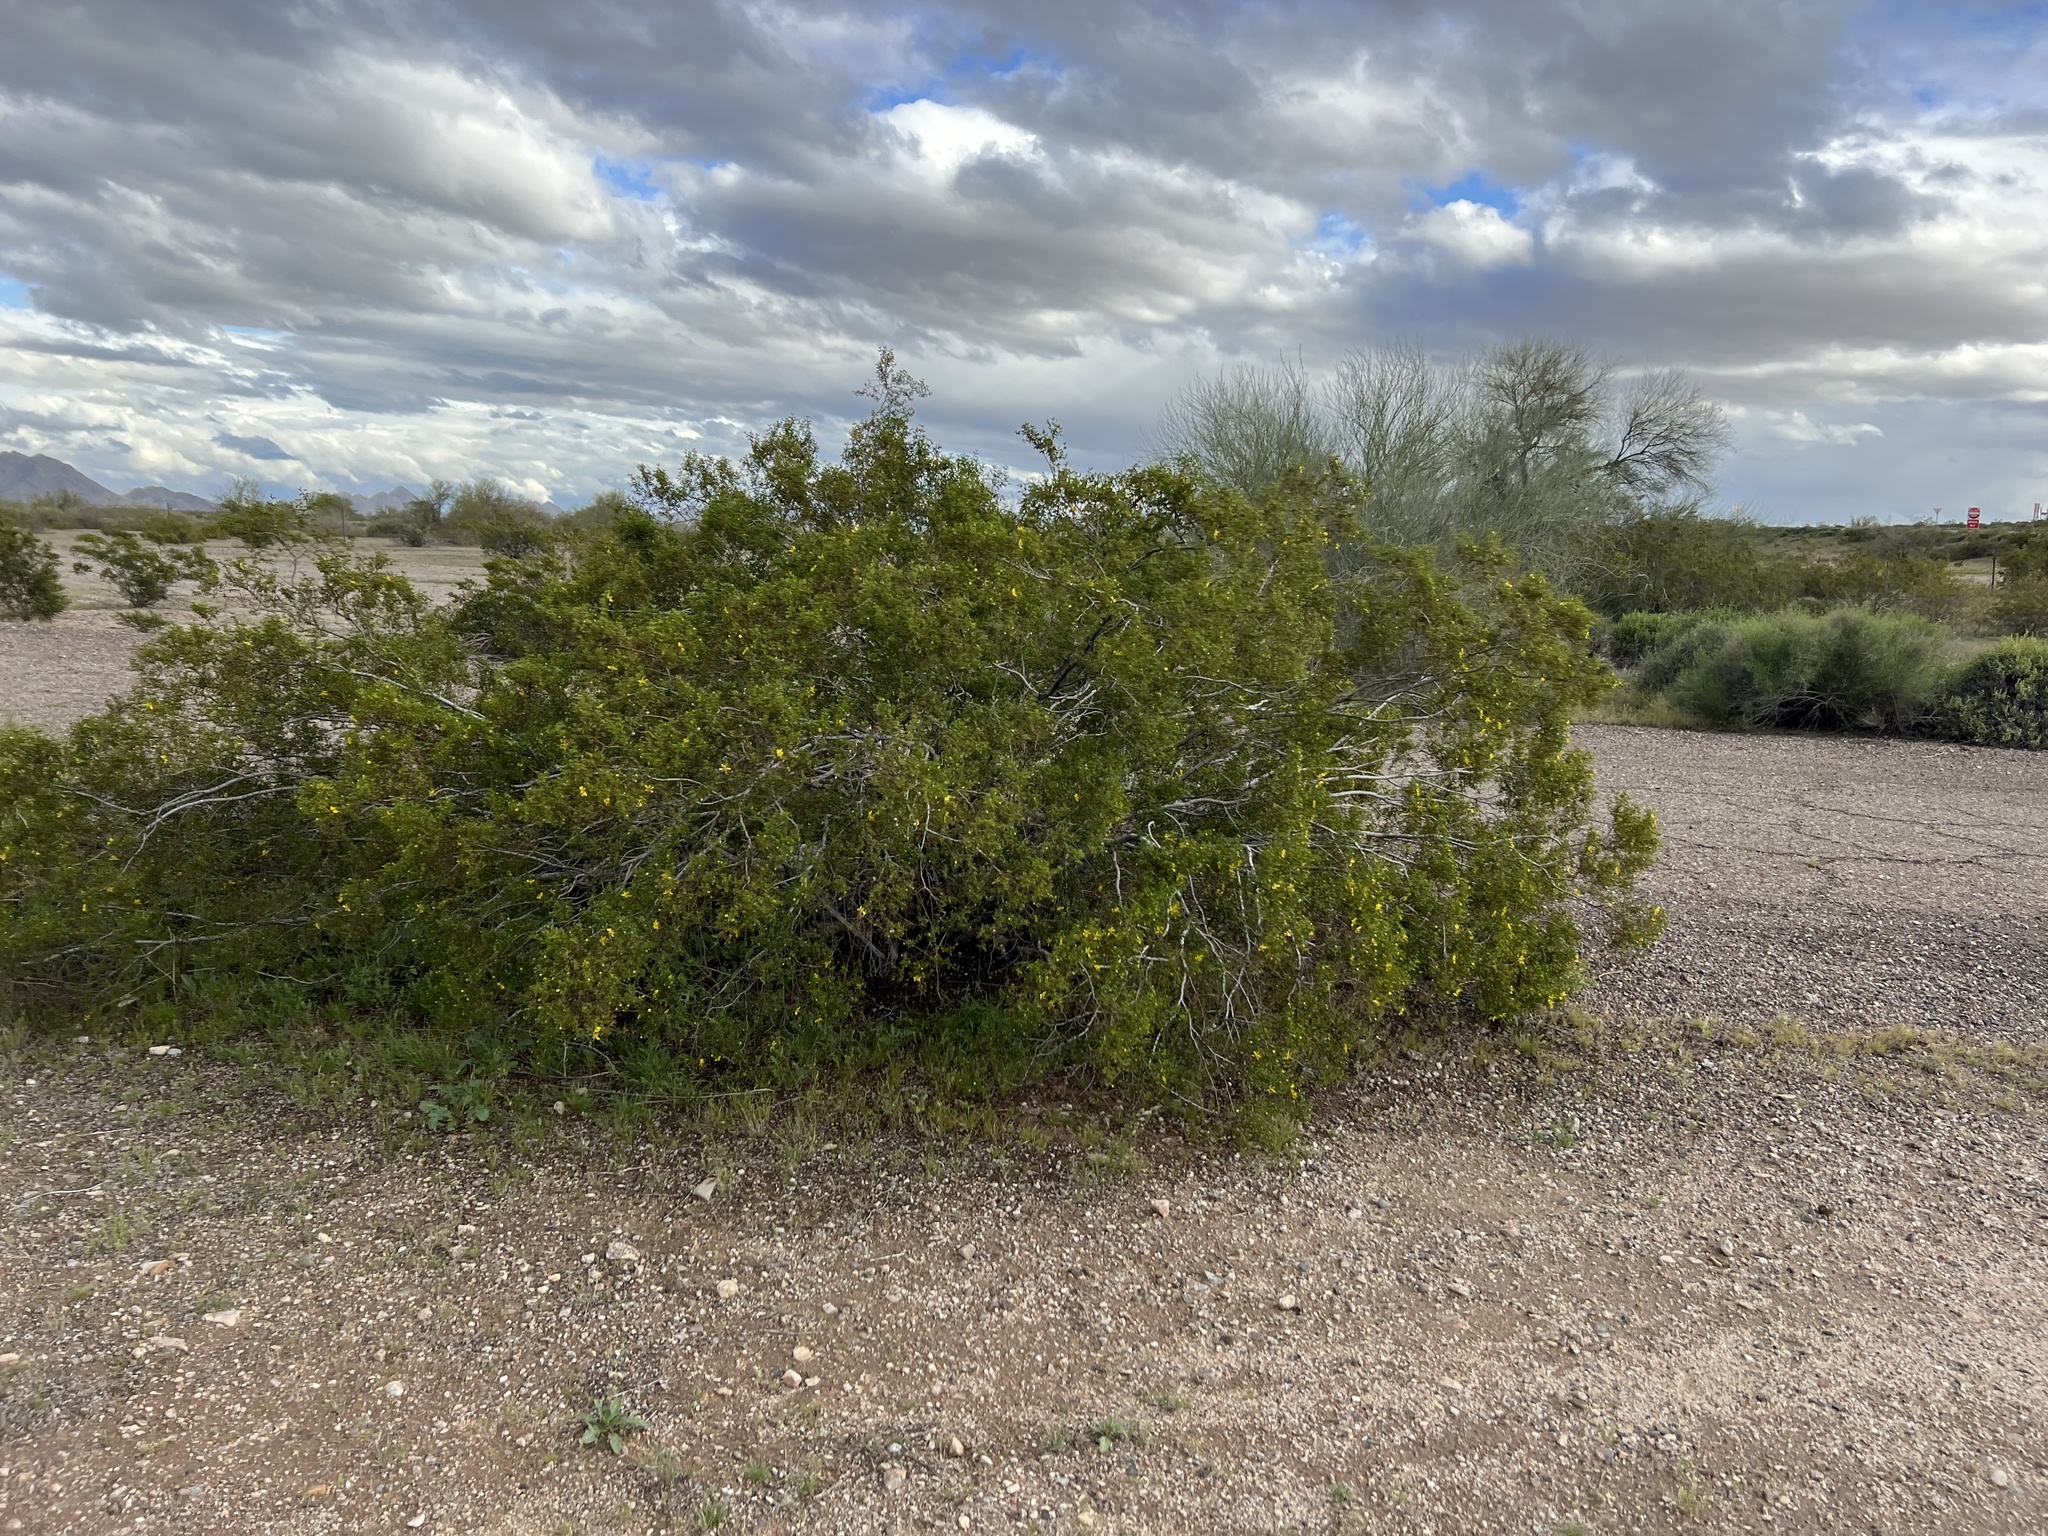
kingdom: Plantae
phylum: Tracheophyta
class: Magnoliopsida
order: Zygophyllales
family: Zygophyllaceae
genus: Larrea
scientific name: Larrea tridentata
